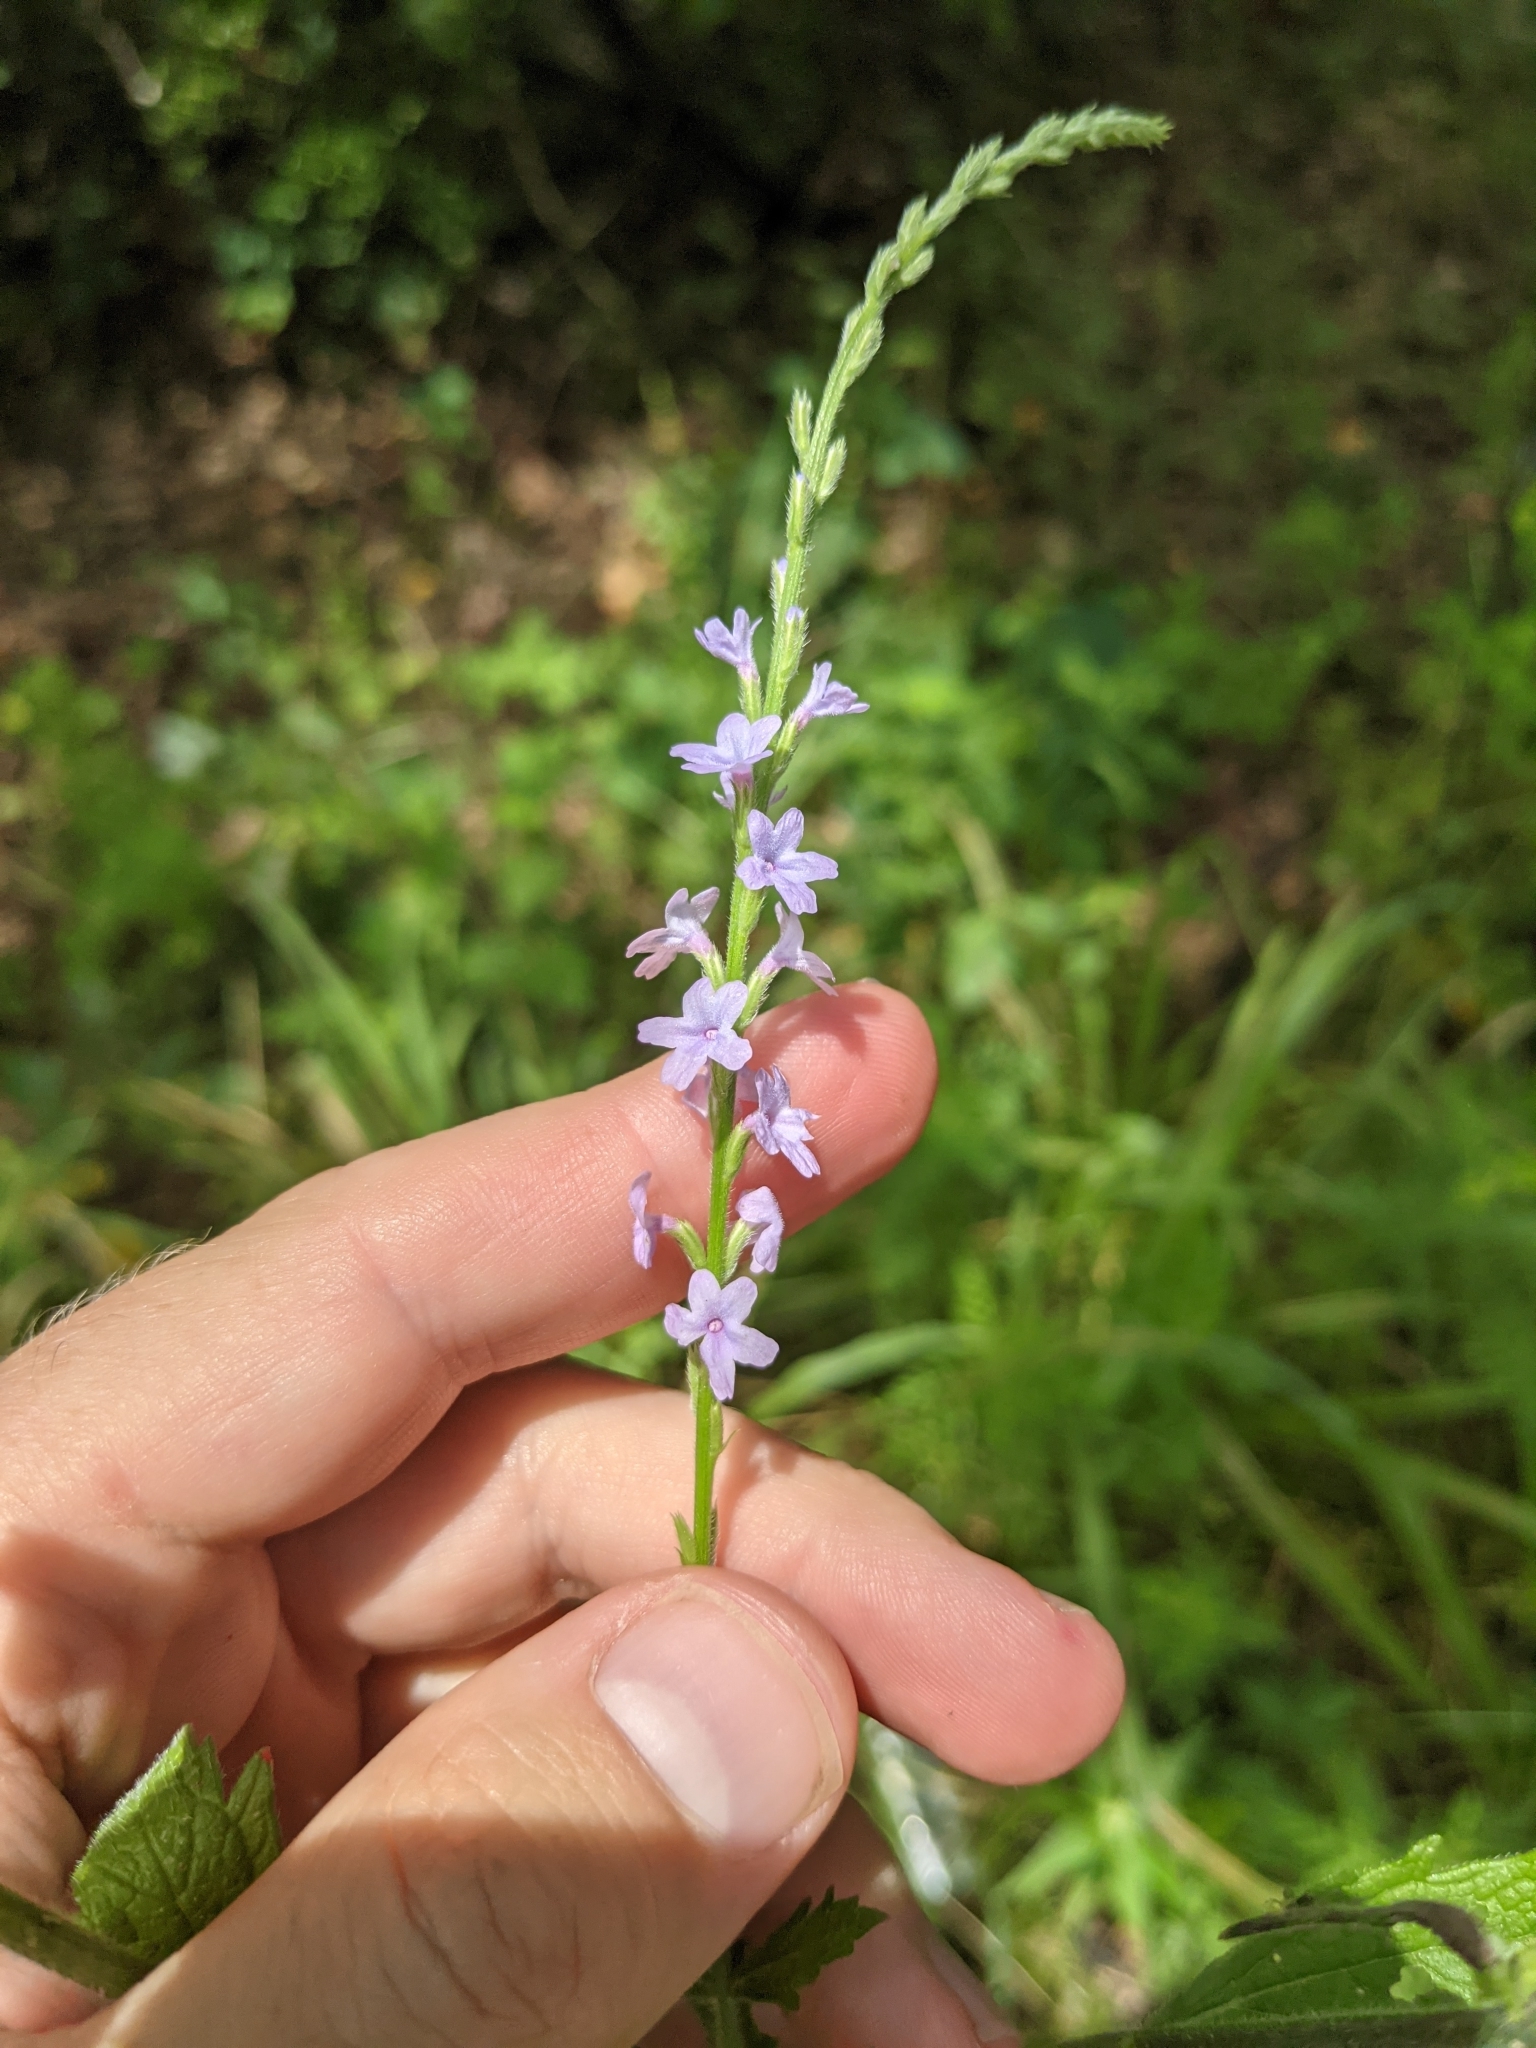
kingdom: Plantae
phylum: Tracheophyta
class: Magnoliopsida
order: Lamiales
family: Verbenaceae
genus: Verbena
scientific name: Verbena xutha
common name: Gulf vervain
